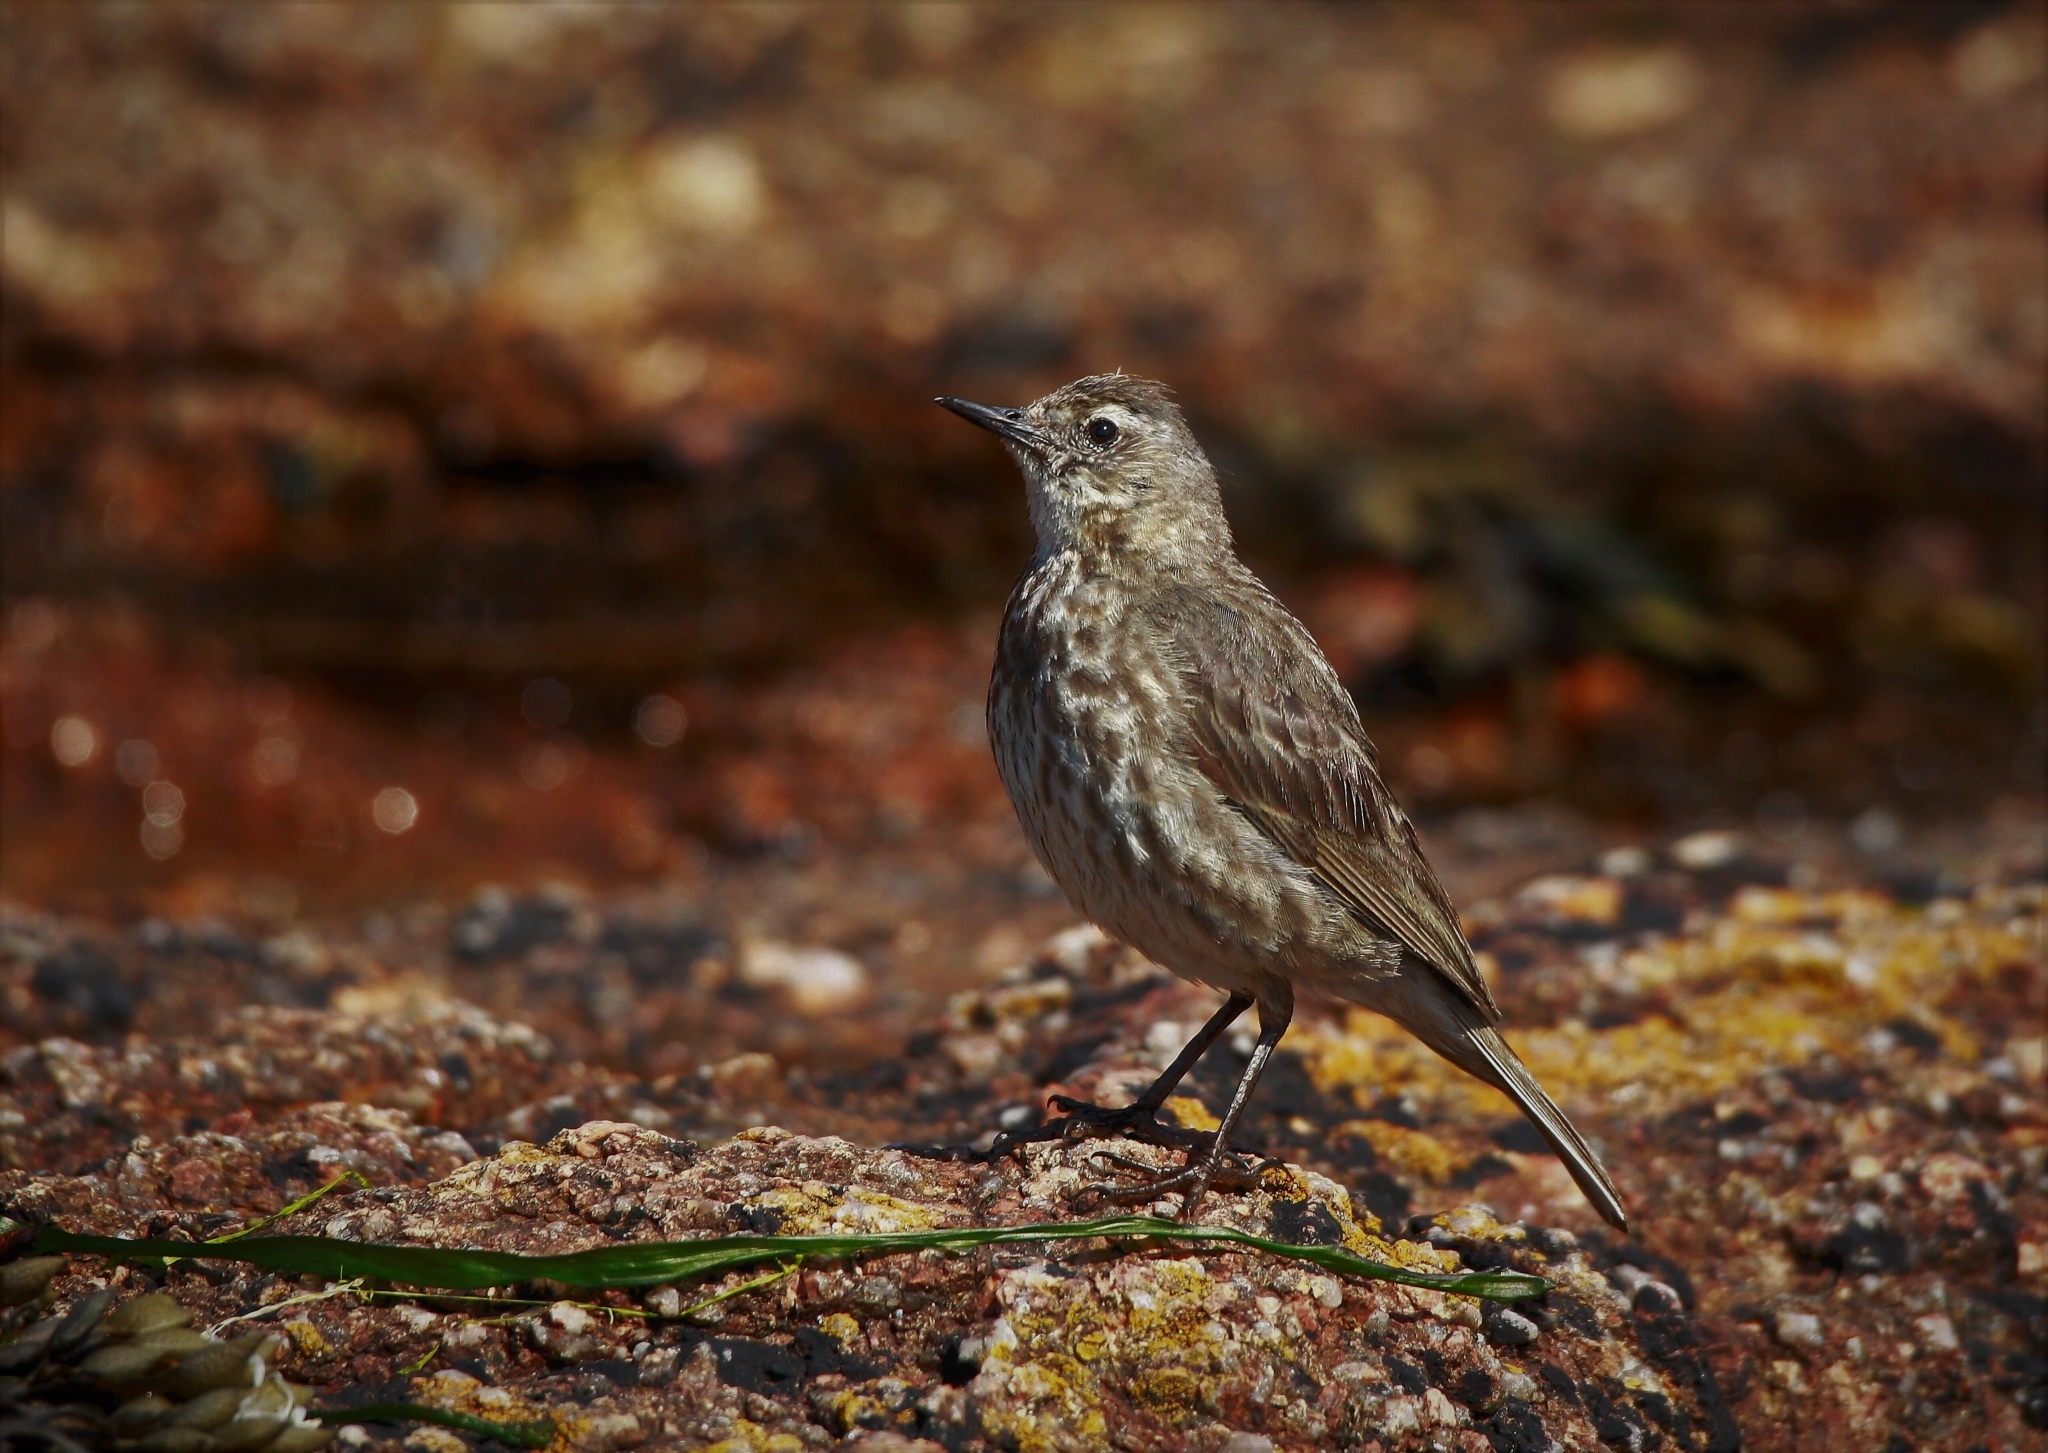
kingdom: Animalia
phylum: Chordata
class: Aves
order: Passeriformes
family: Motacillidae
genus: Anthus
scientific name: Anthus petrosus
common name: Eurasian rock pipit
